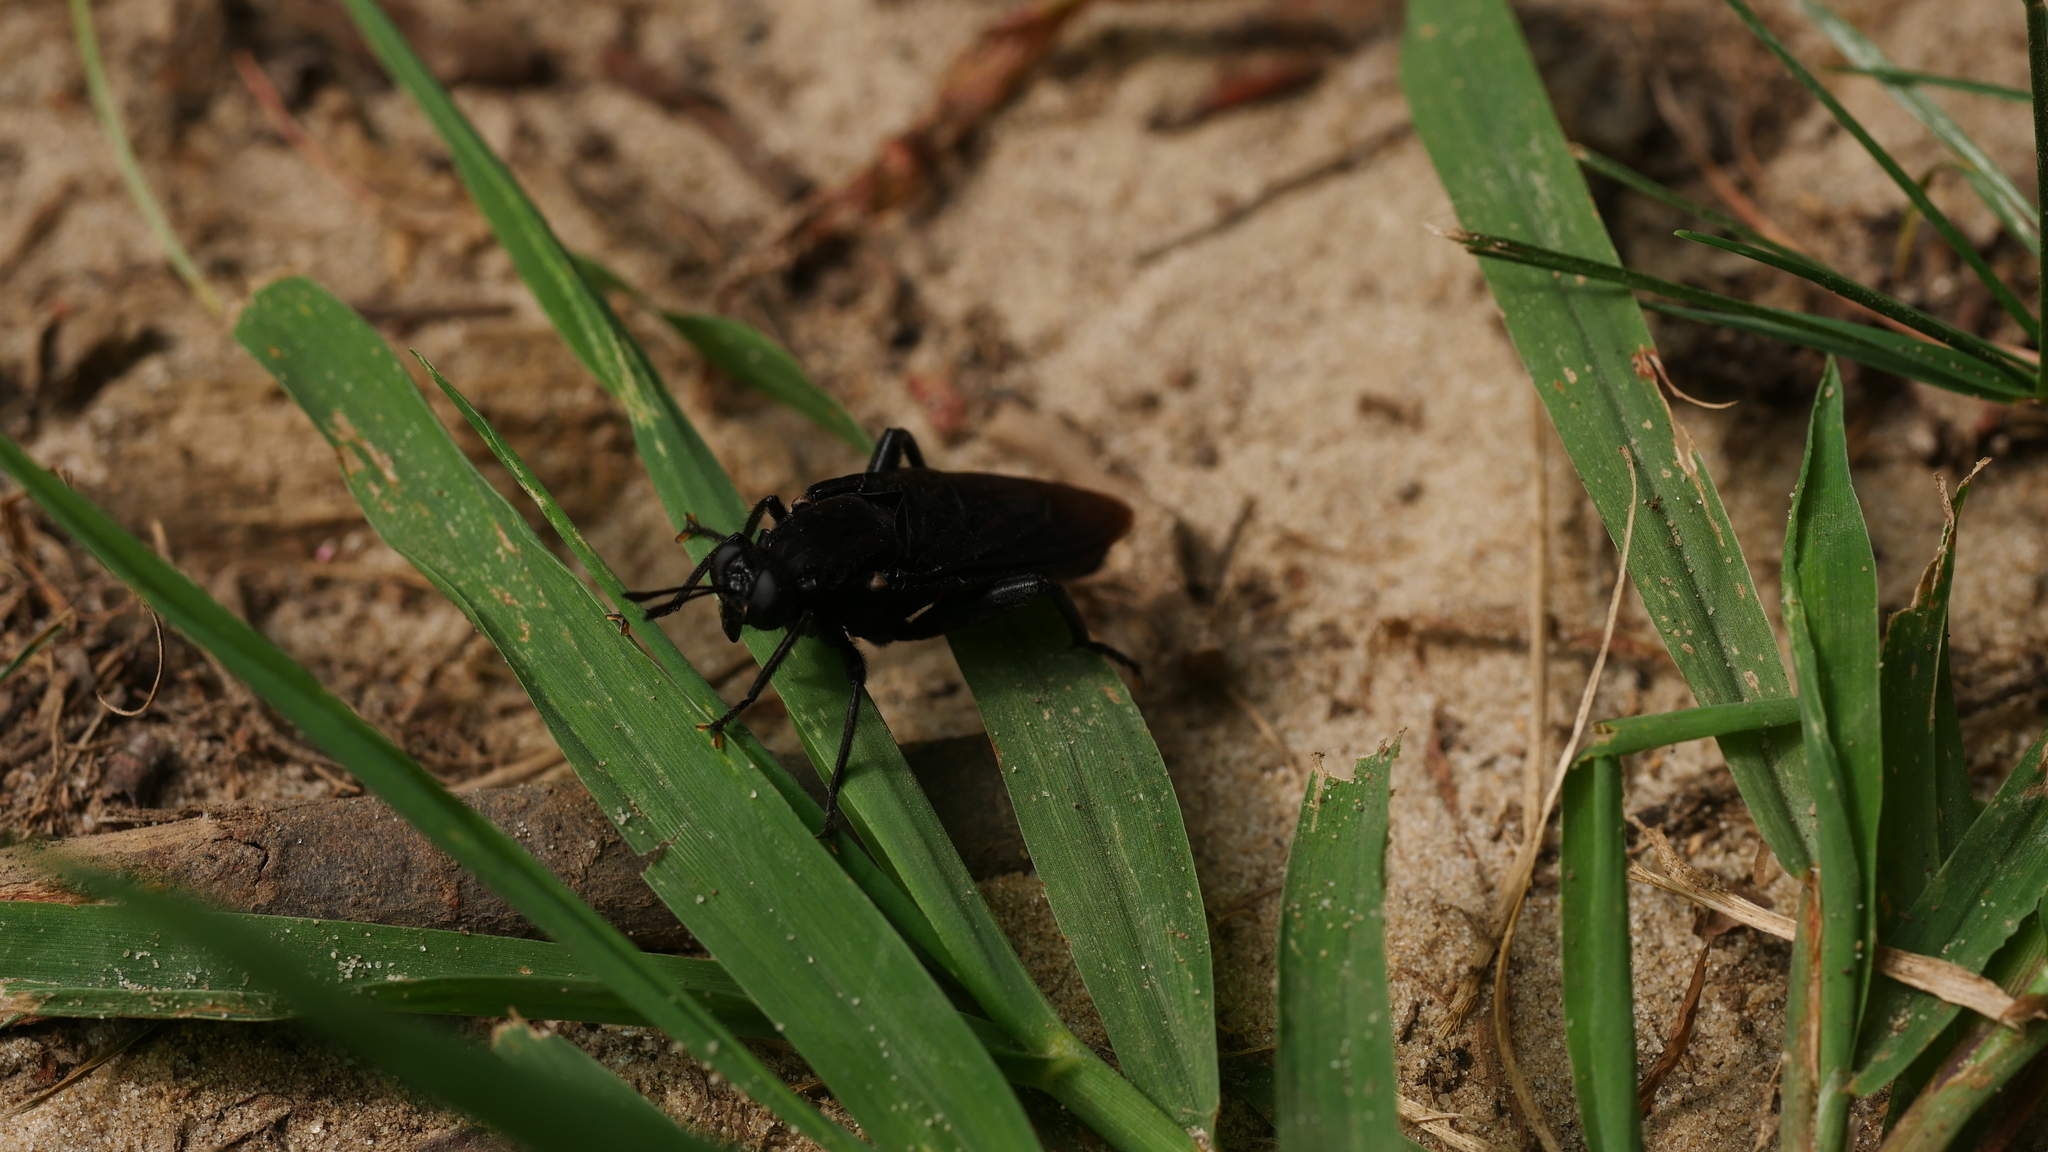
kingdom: Animalia
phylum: Arthropoda
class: Insecta
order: Diptera
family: Mydidae
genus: Mydas
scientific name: Mydas clavatus
